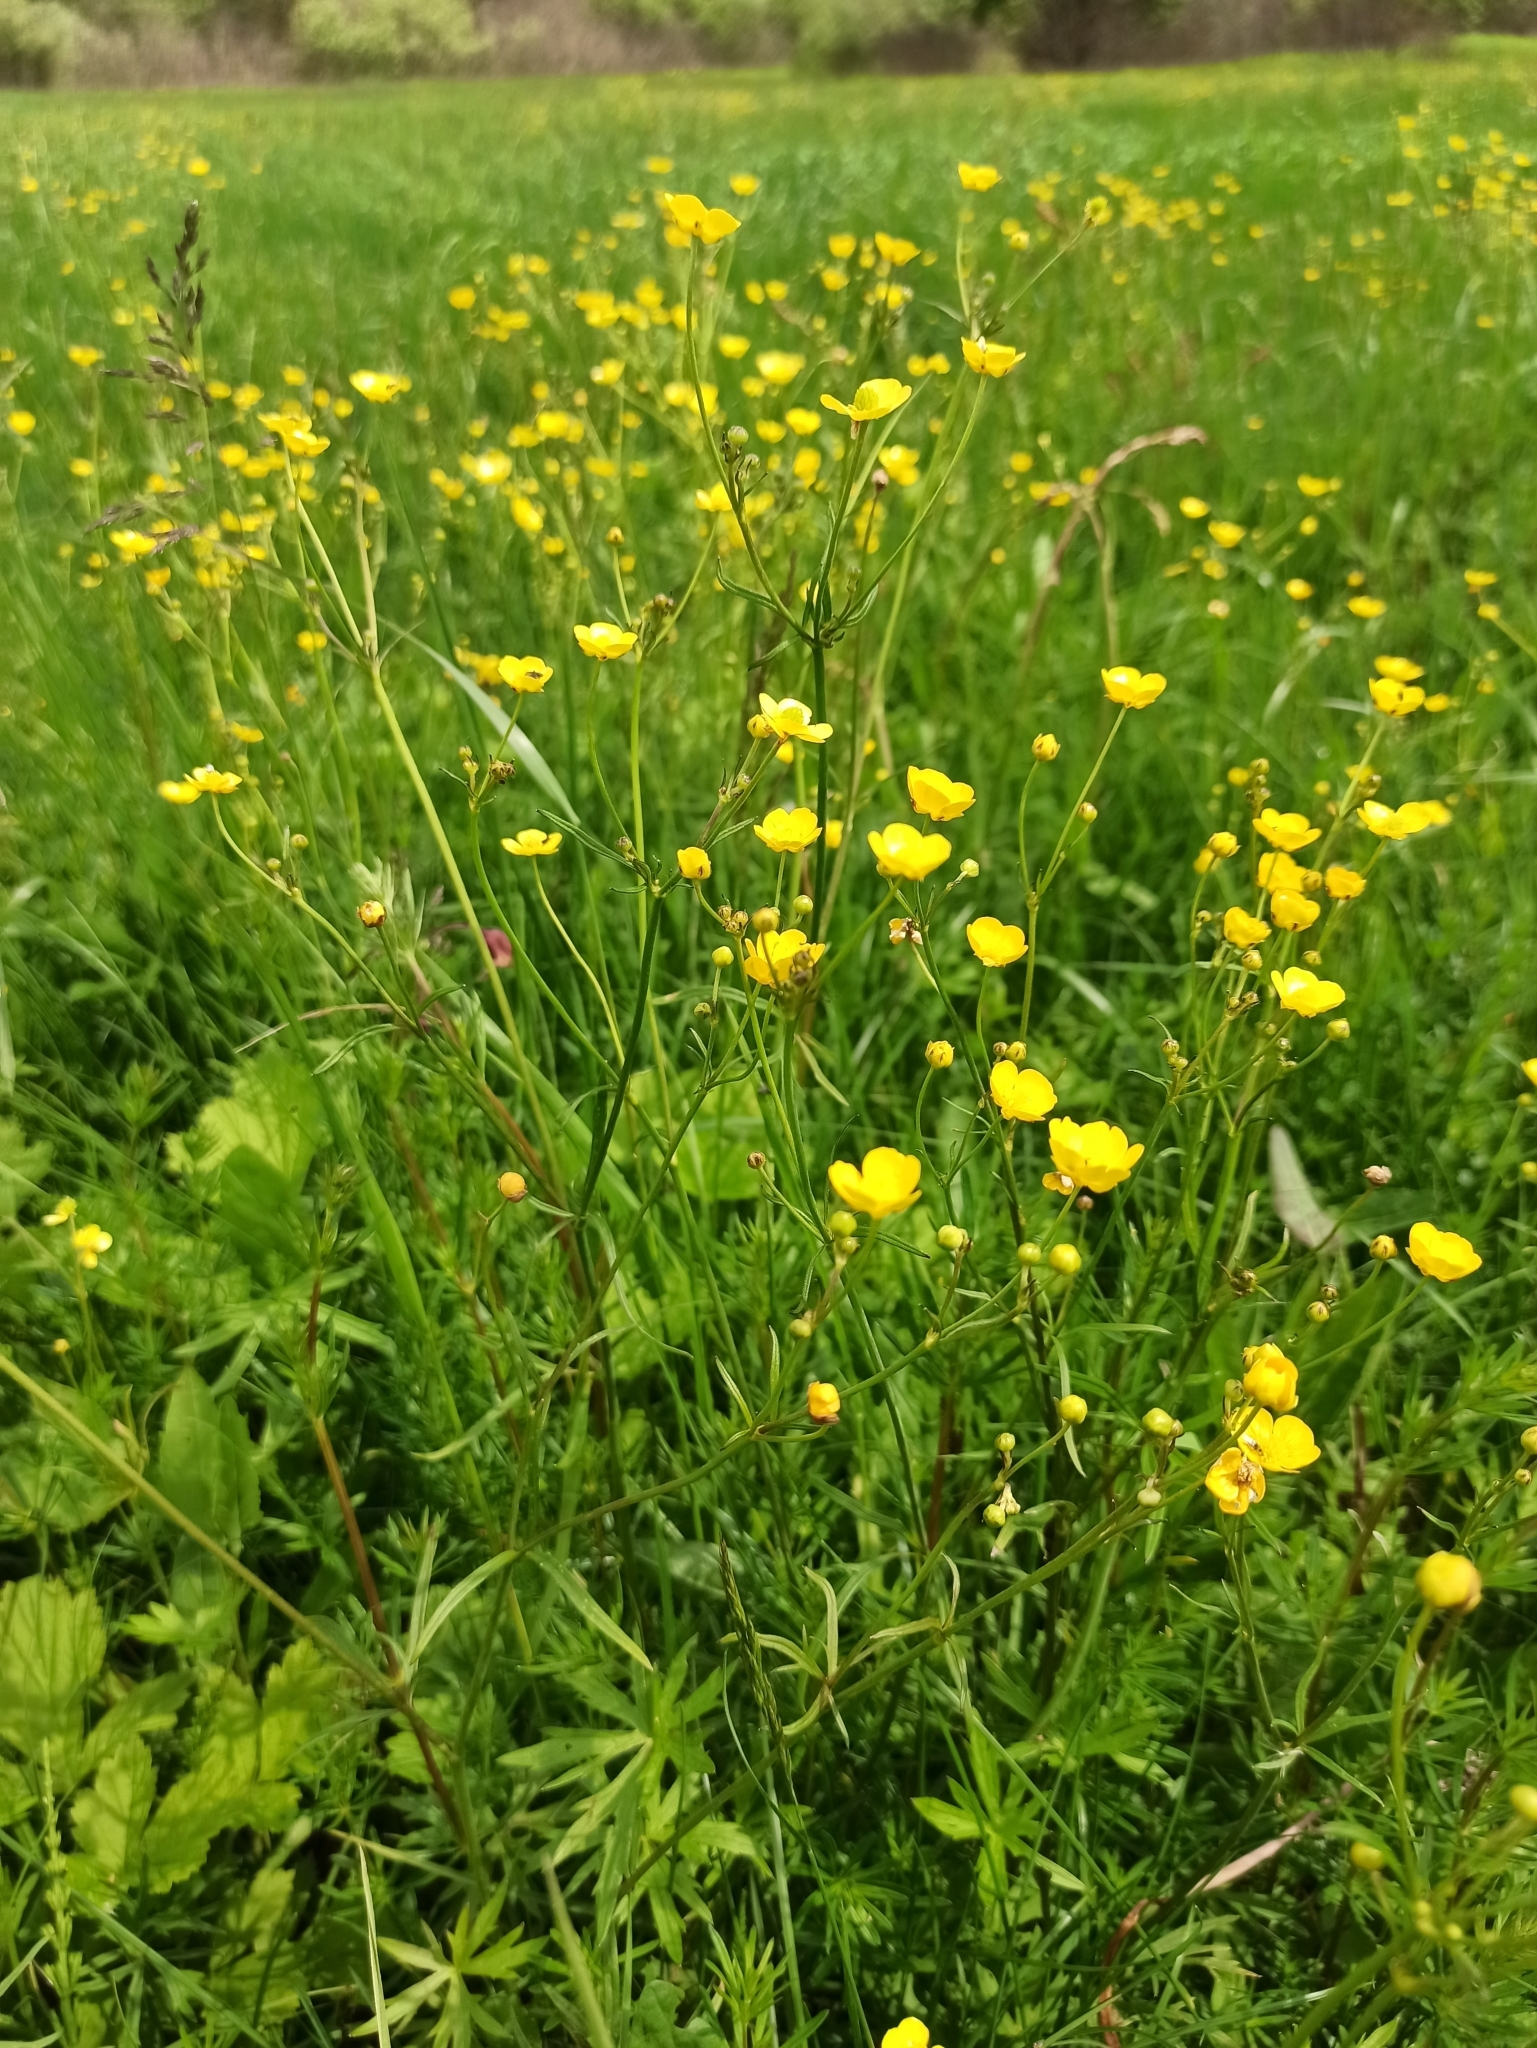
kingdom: Plantae
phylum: Tracheophyta
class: Magnoliopsida
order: Ranunculales
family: Ranunculaceae
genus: Ranunculus
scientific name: Ranunculus acris
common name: Meadow buttercup
